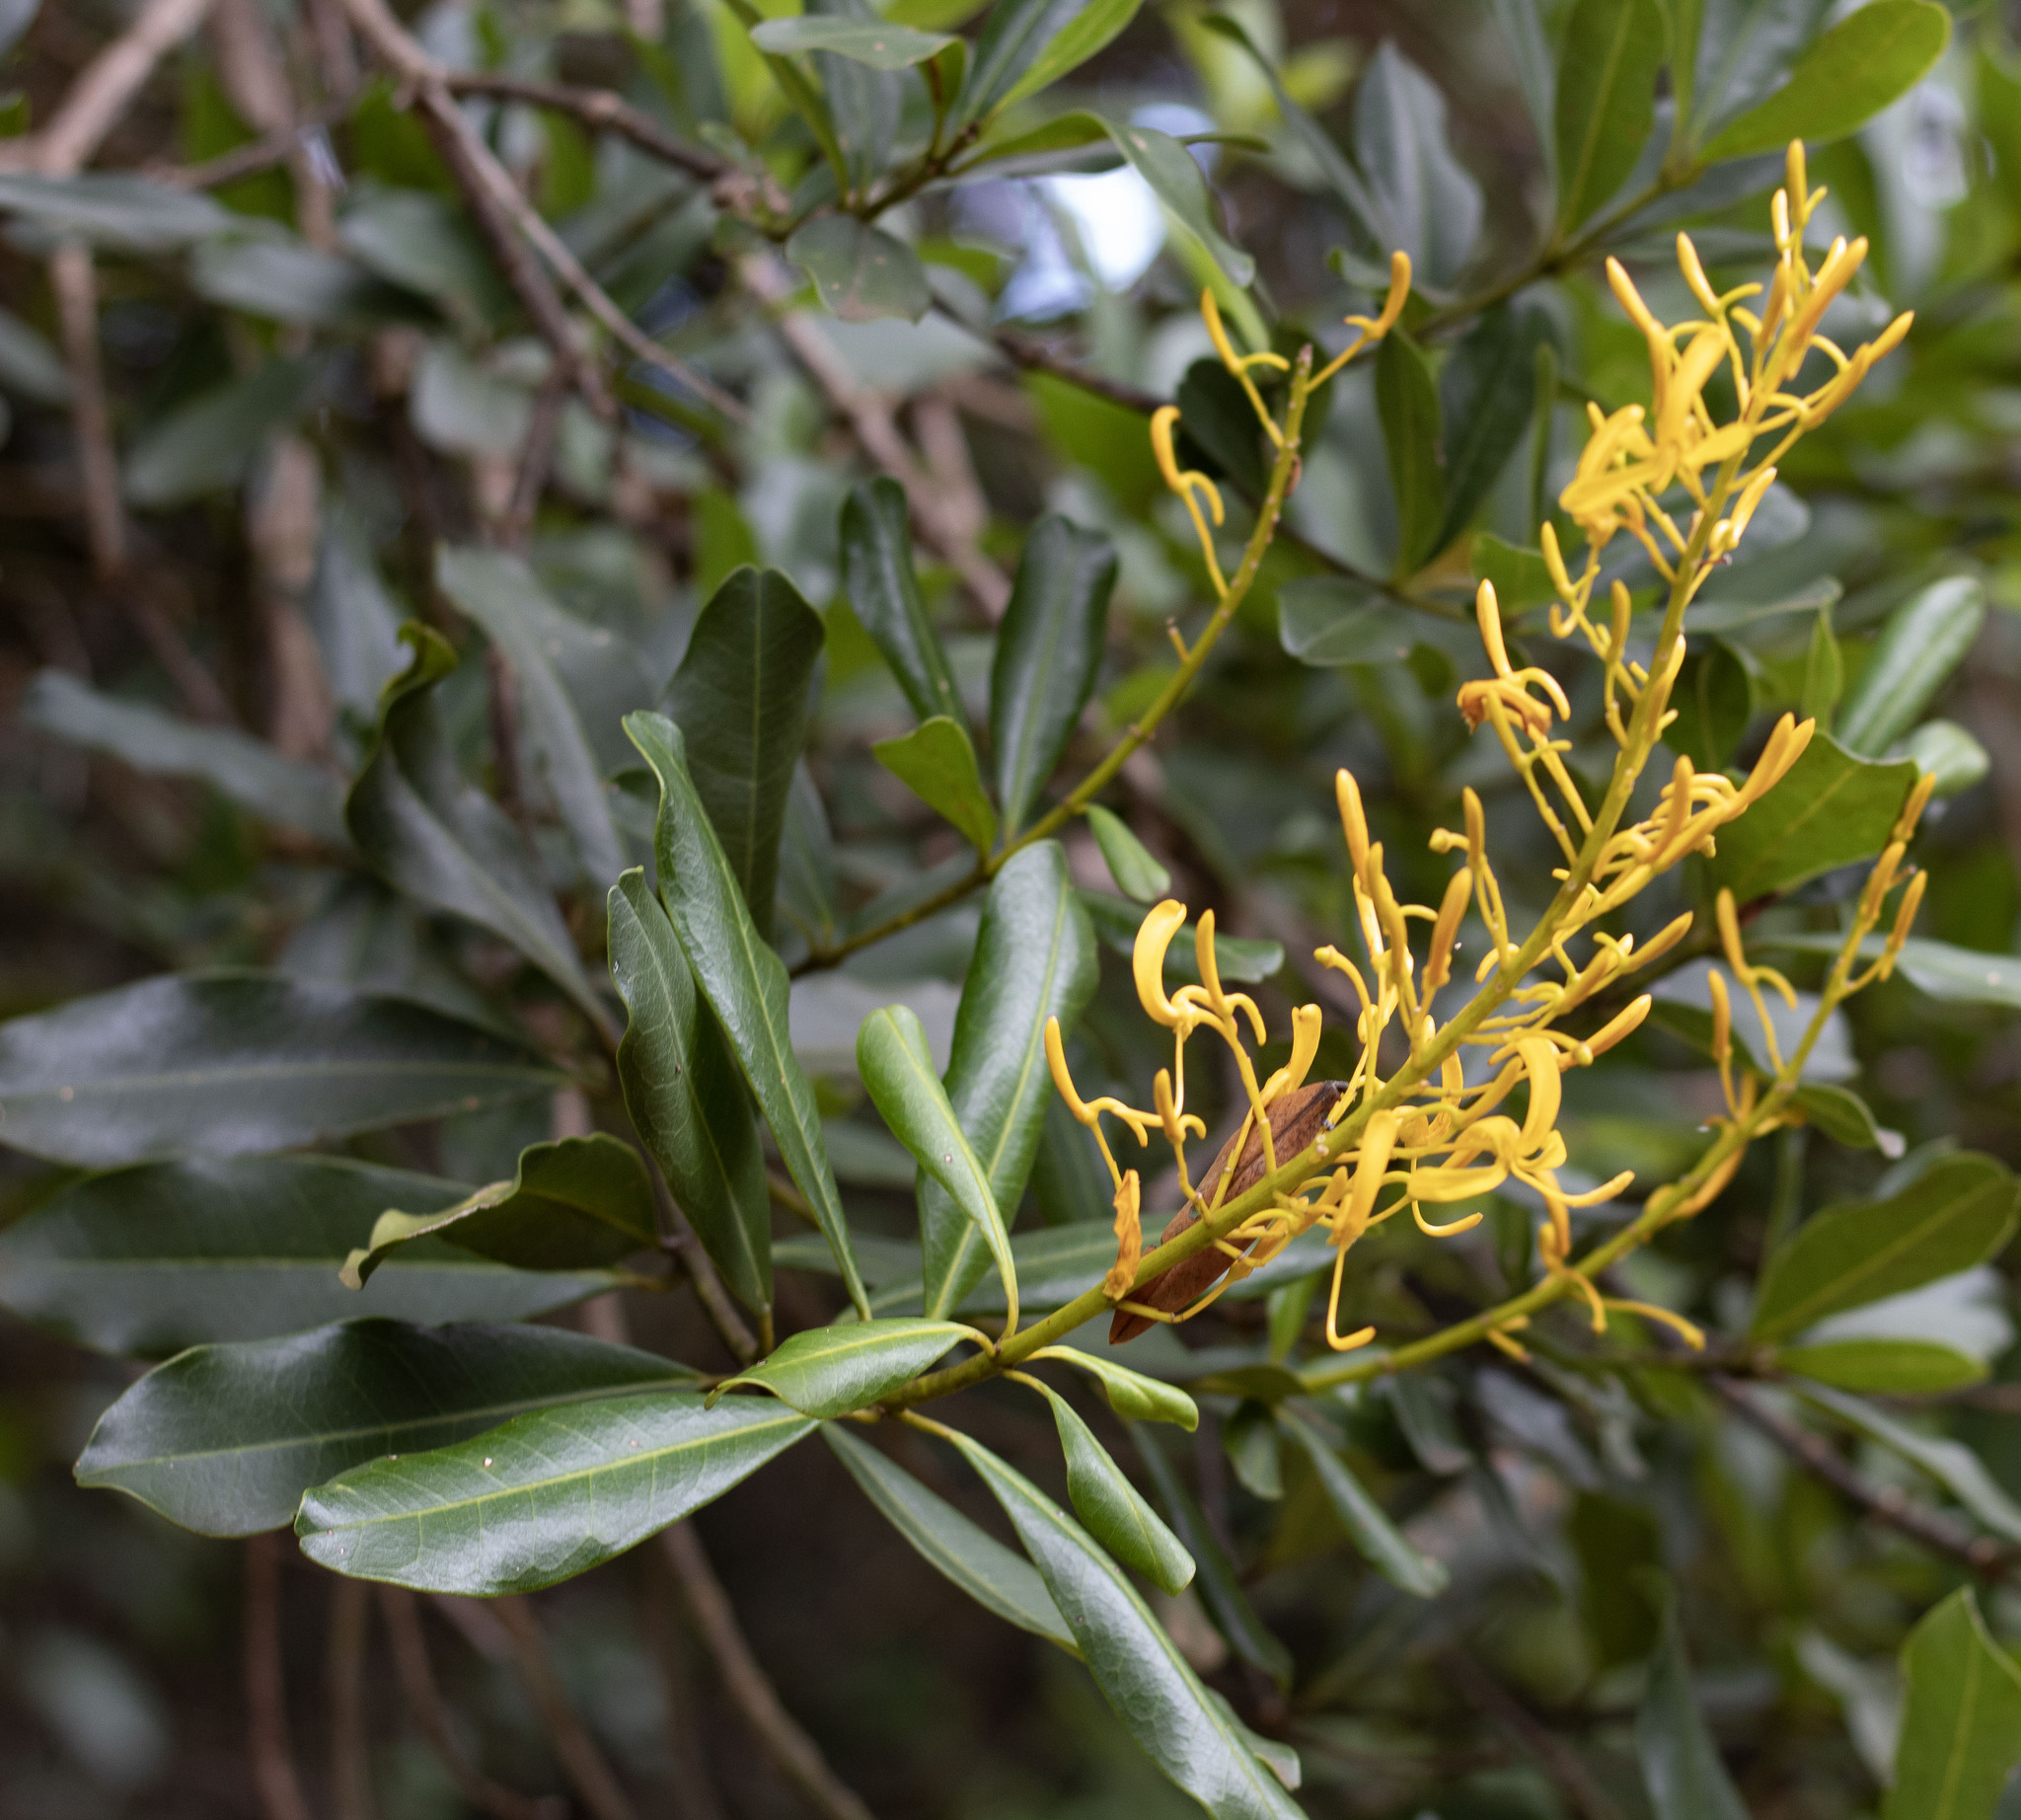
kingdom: Plantae
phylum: Tracheophyta
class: Magnoliopsida
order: Myrtales
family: Vochysiaceae
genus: Vochysia
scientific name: Vochysia tucanorum
